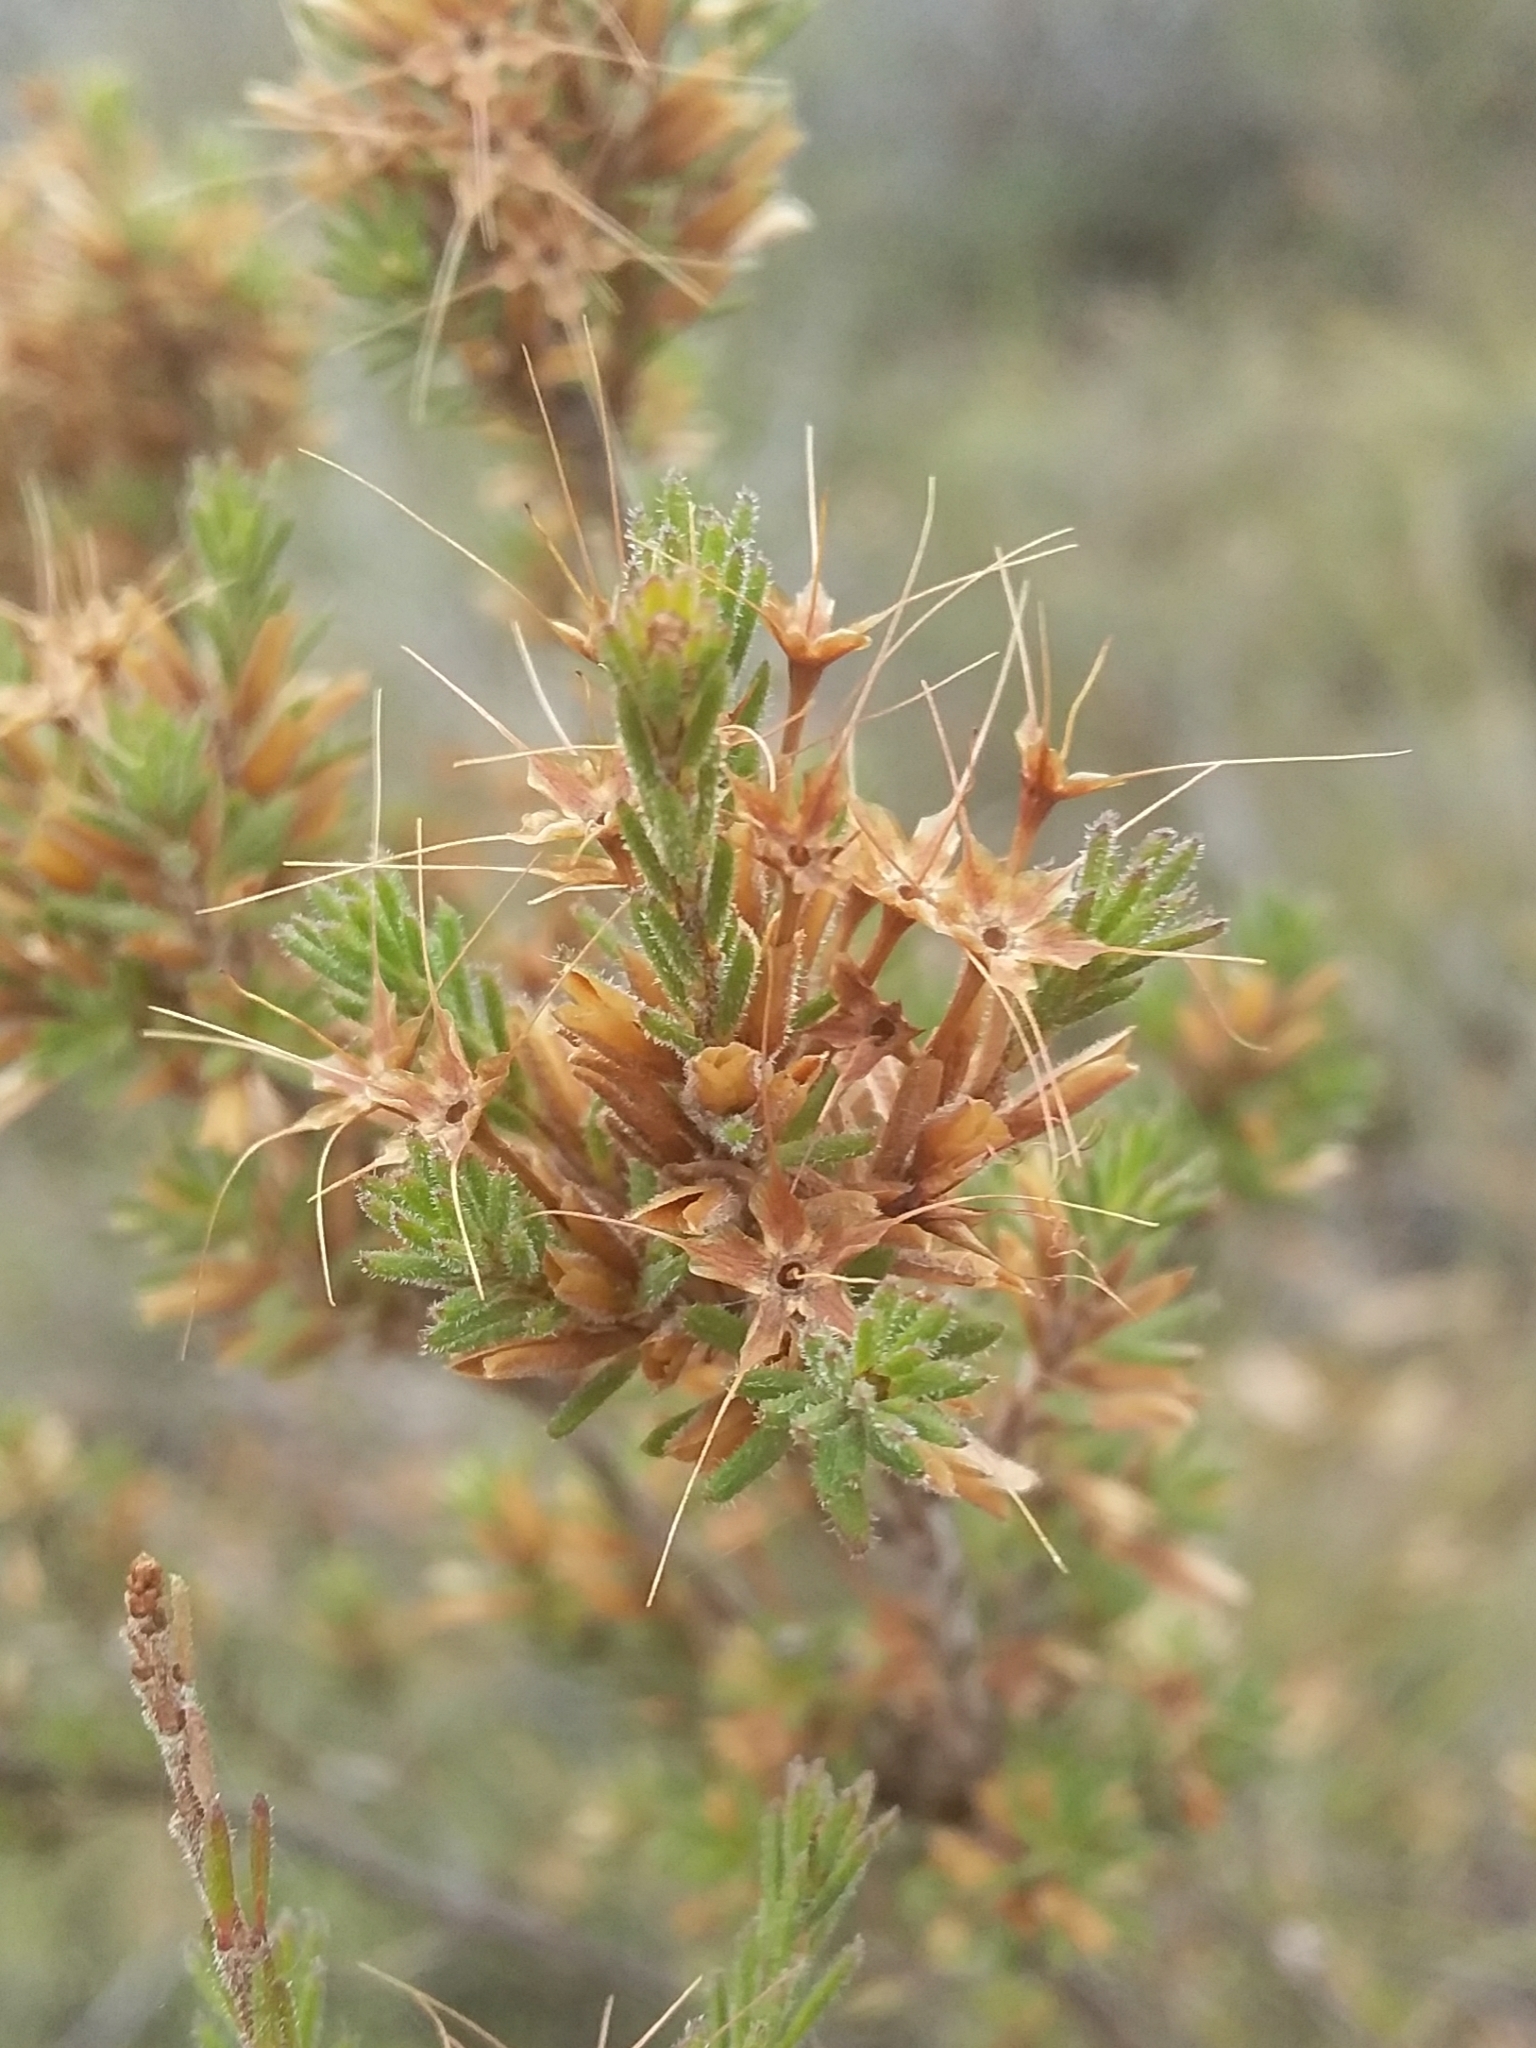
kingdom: Plantae
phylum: Tracheophyta
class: Magnoliopsida
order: Myrtales
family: Myrtaceae
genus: Calytrix
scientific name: Calytrix tetragona
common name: Common fringe myrtle
